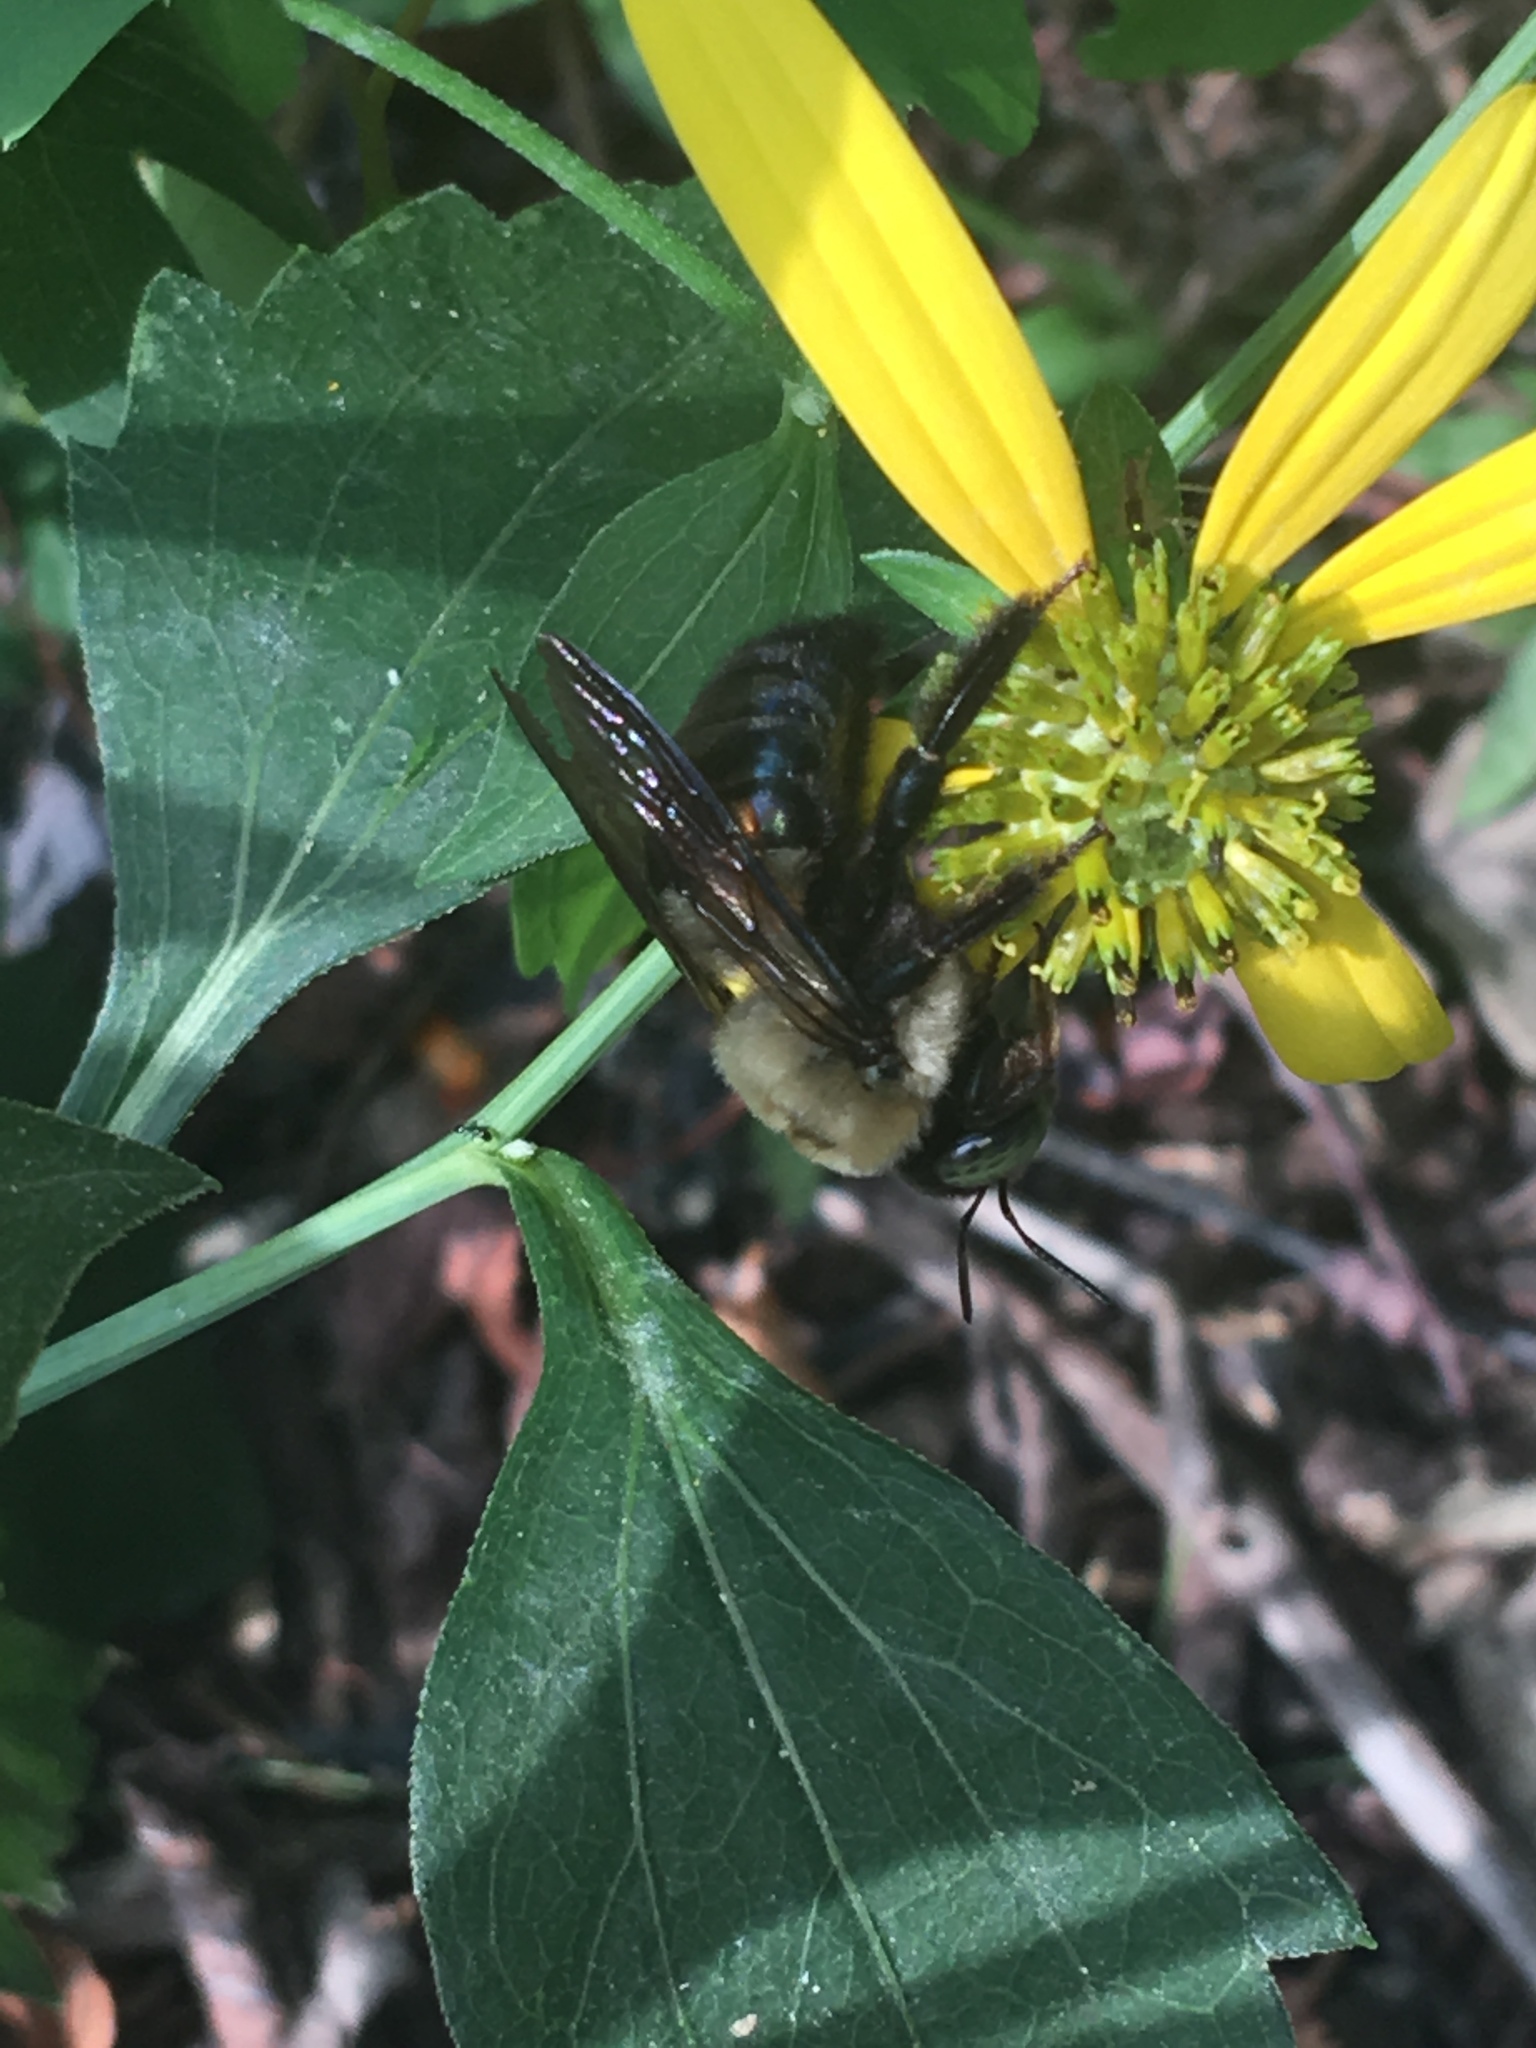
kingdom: Animalia
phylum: Arthropoda
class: Insecta
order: Hymenoptera
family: Apidae
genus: Xylocopa
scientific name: Xylocopa virginica
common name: Carpenter bee
